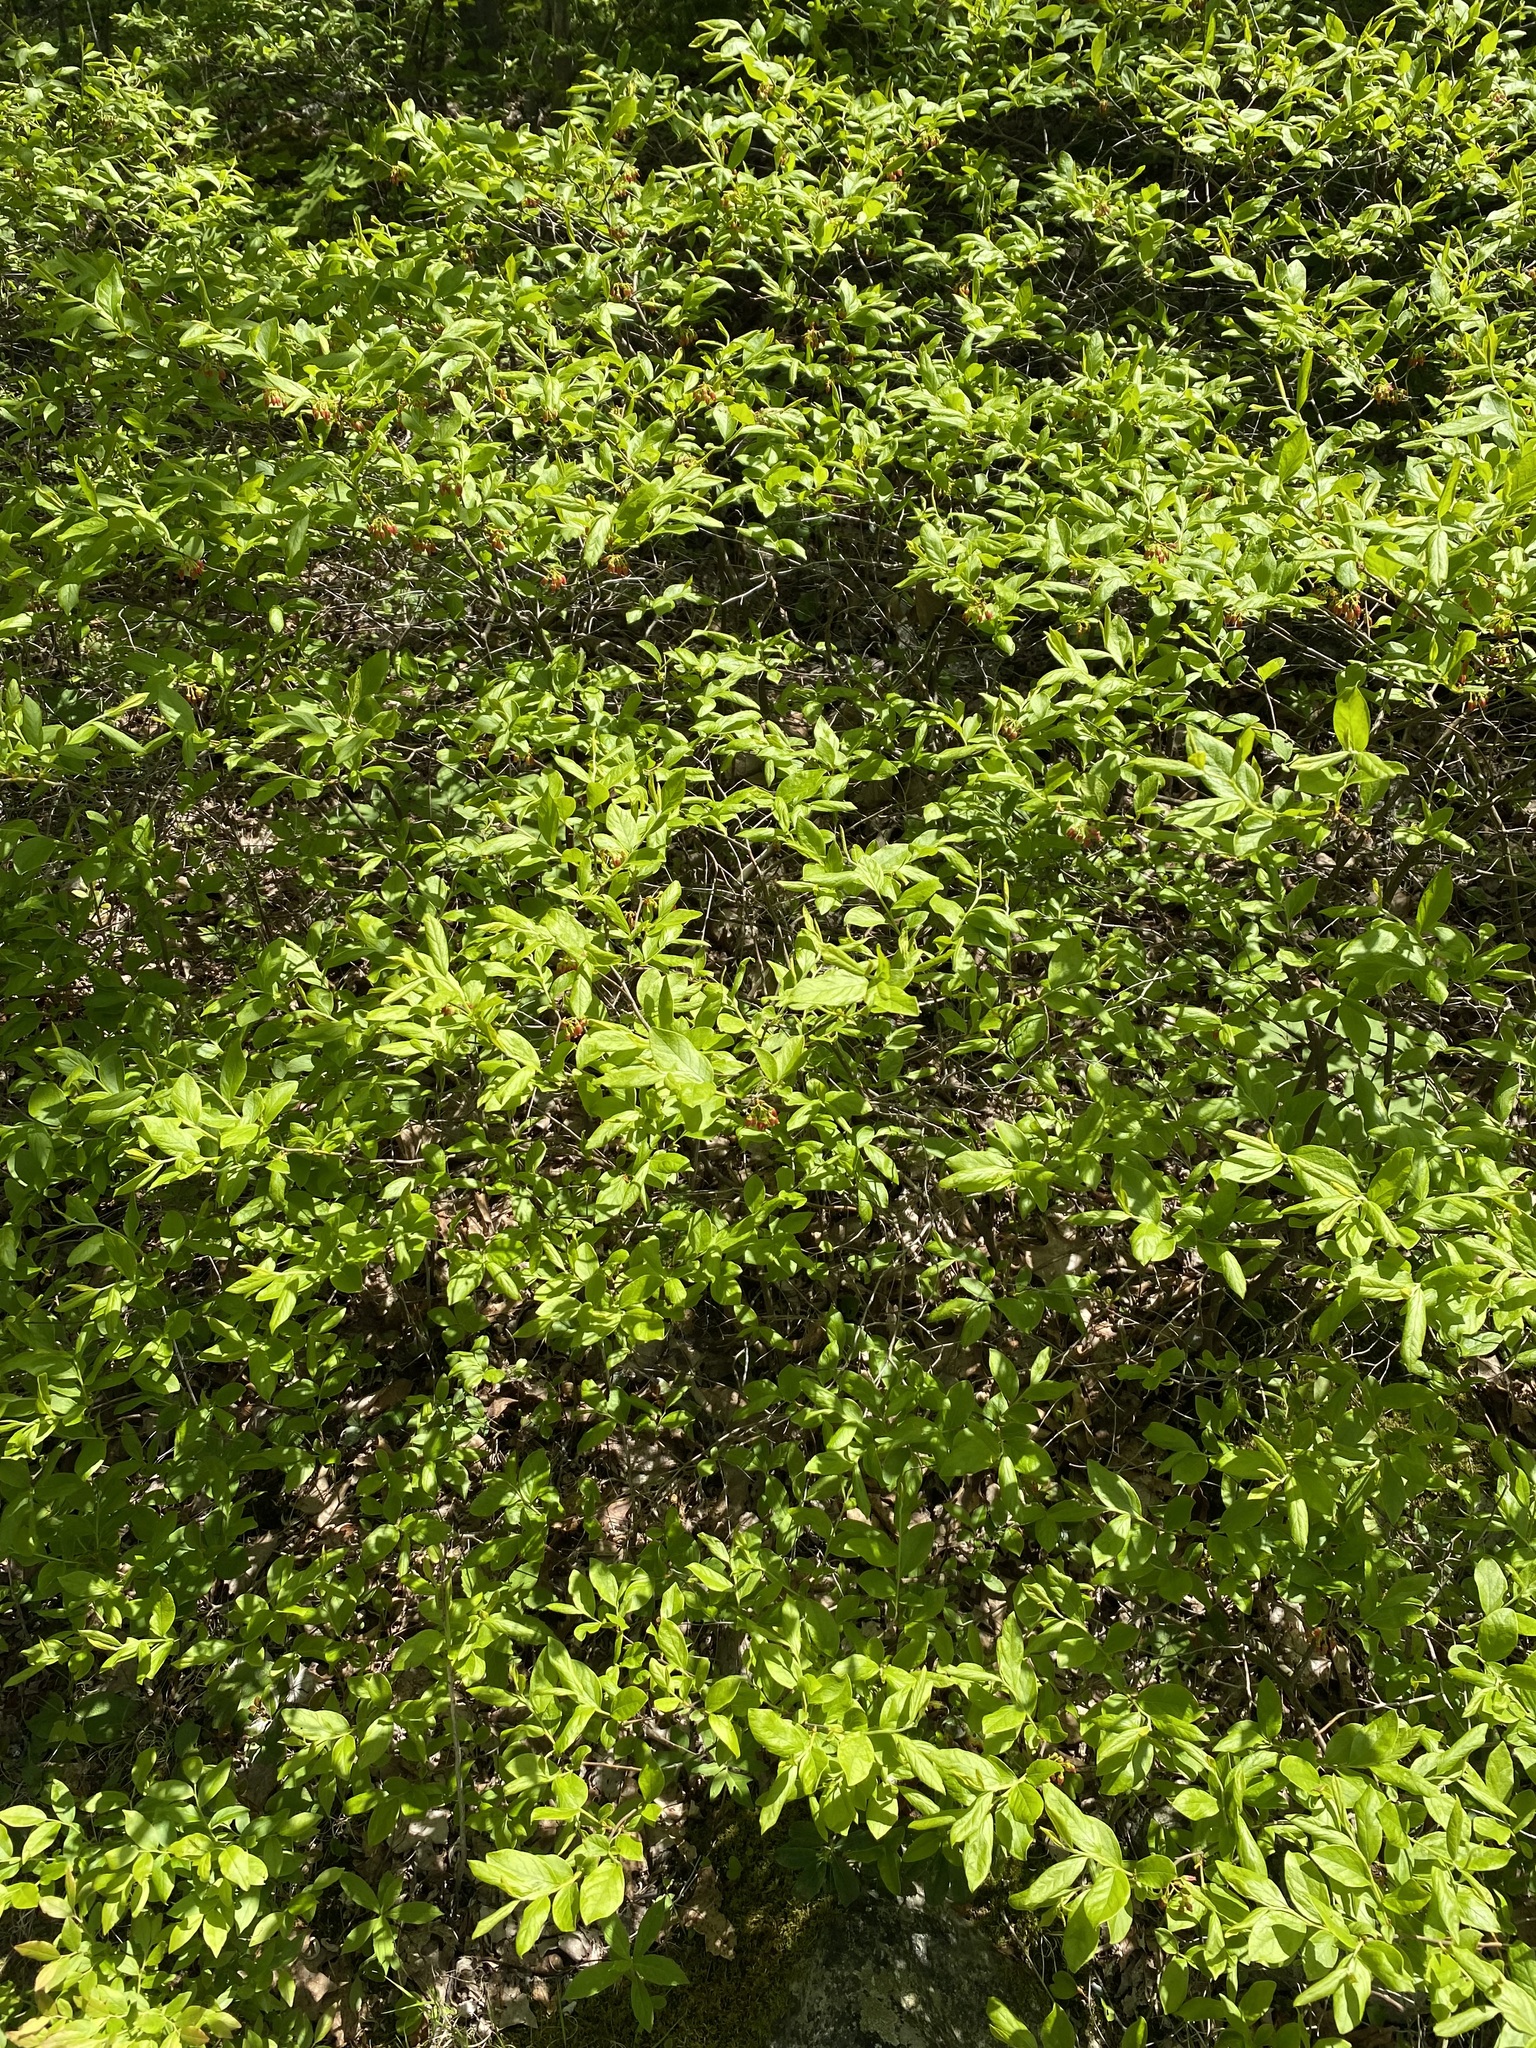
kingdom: Plantae
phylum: Tracheophyta
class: Magnoliopsida
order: Ericales
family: Ericaceae
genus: Gaylussacia
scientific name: Gaylussacia baccata
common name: Black huckleberry
